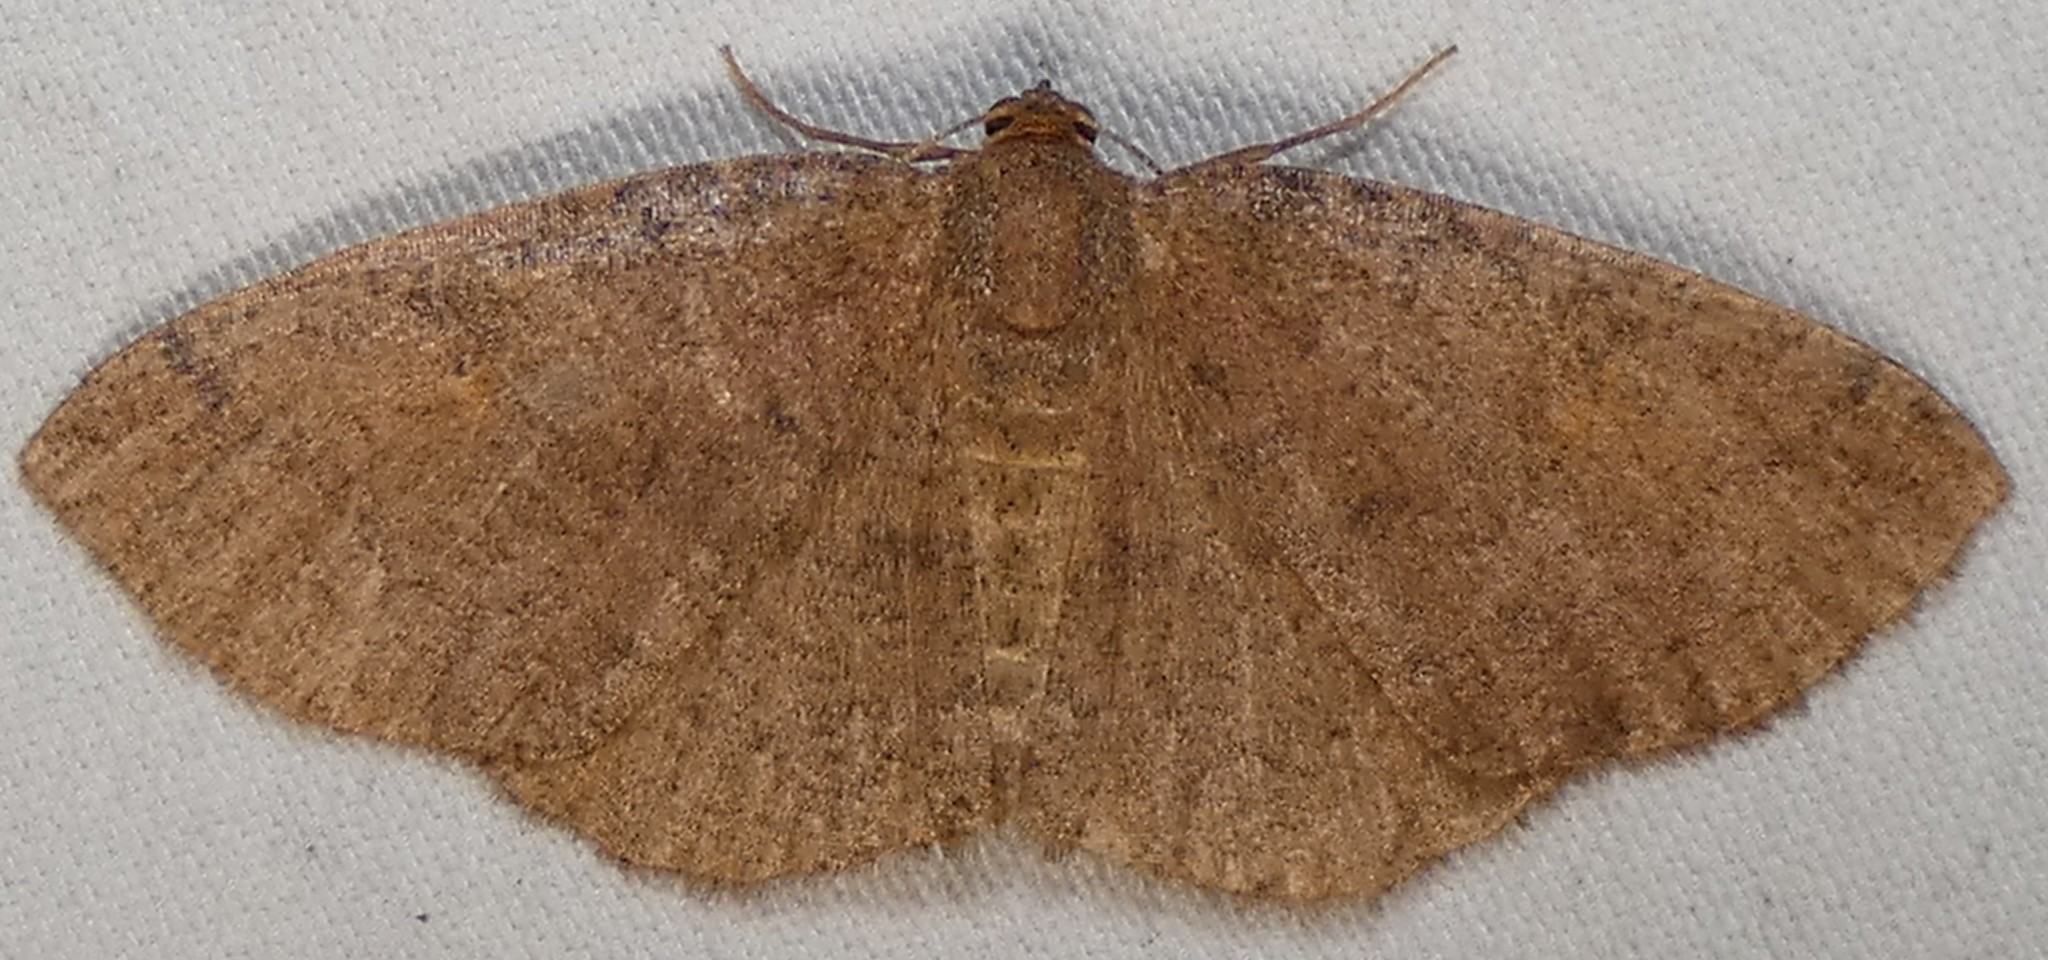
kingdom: Animalia
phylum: Arthropoda
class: Insecta
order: Lepidoptera
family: Geometridae
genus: Ilexia
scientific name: Ilexia intractata
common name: Black-dotted ruddy moth
